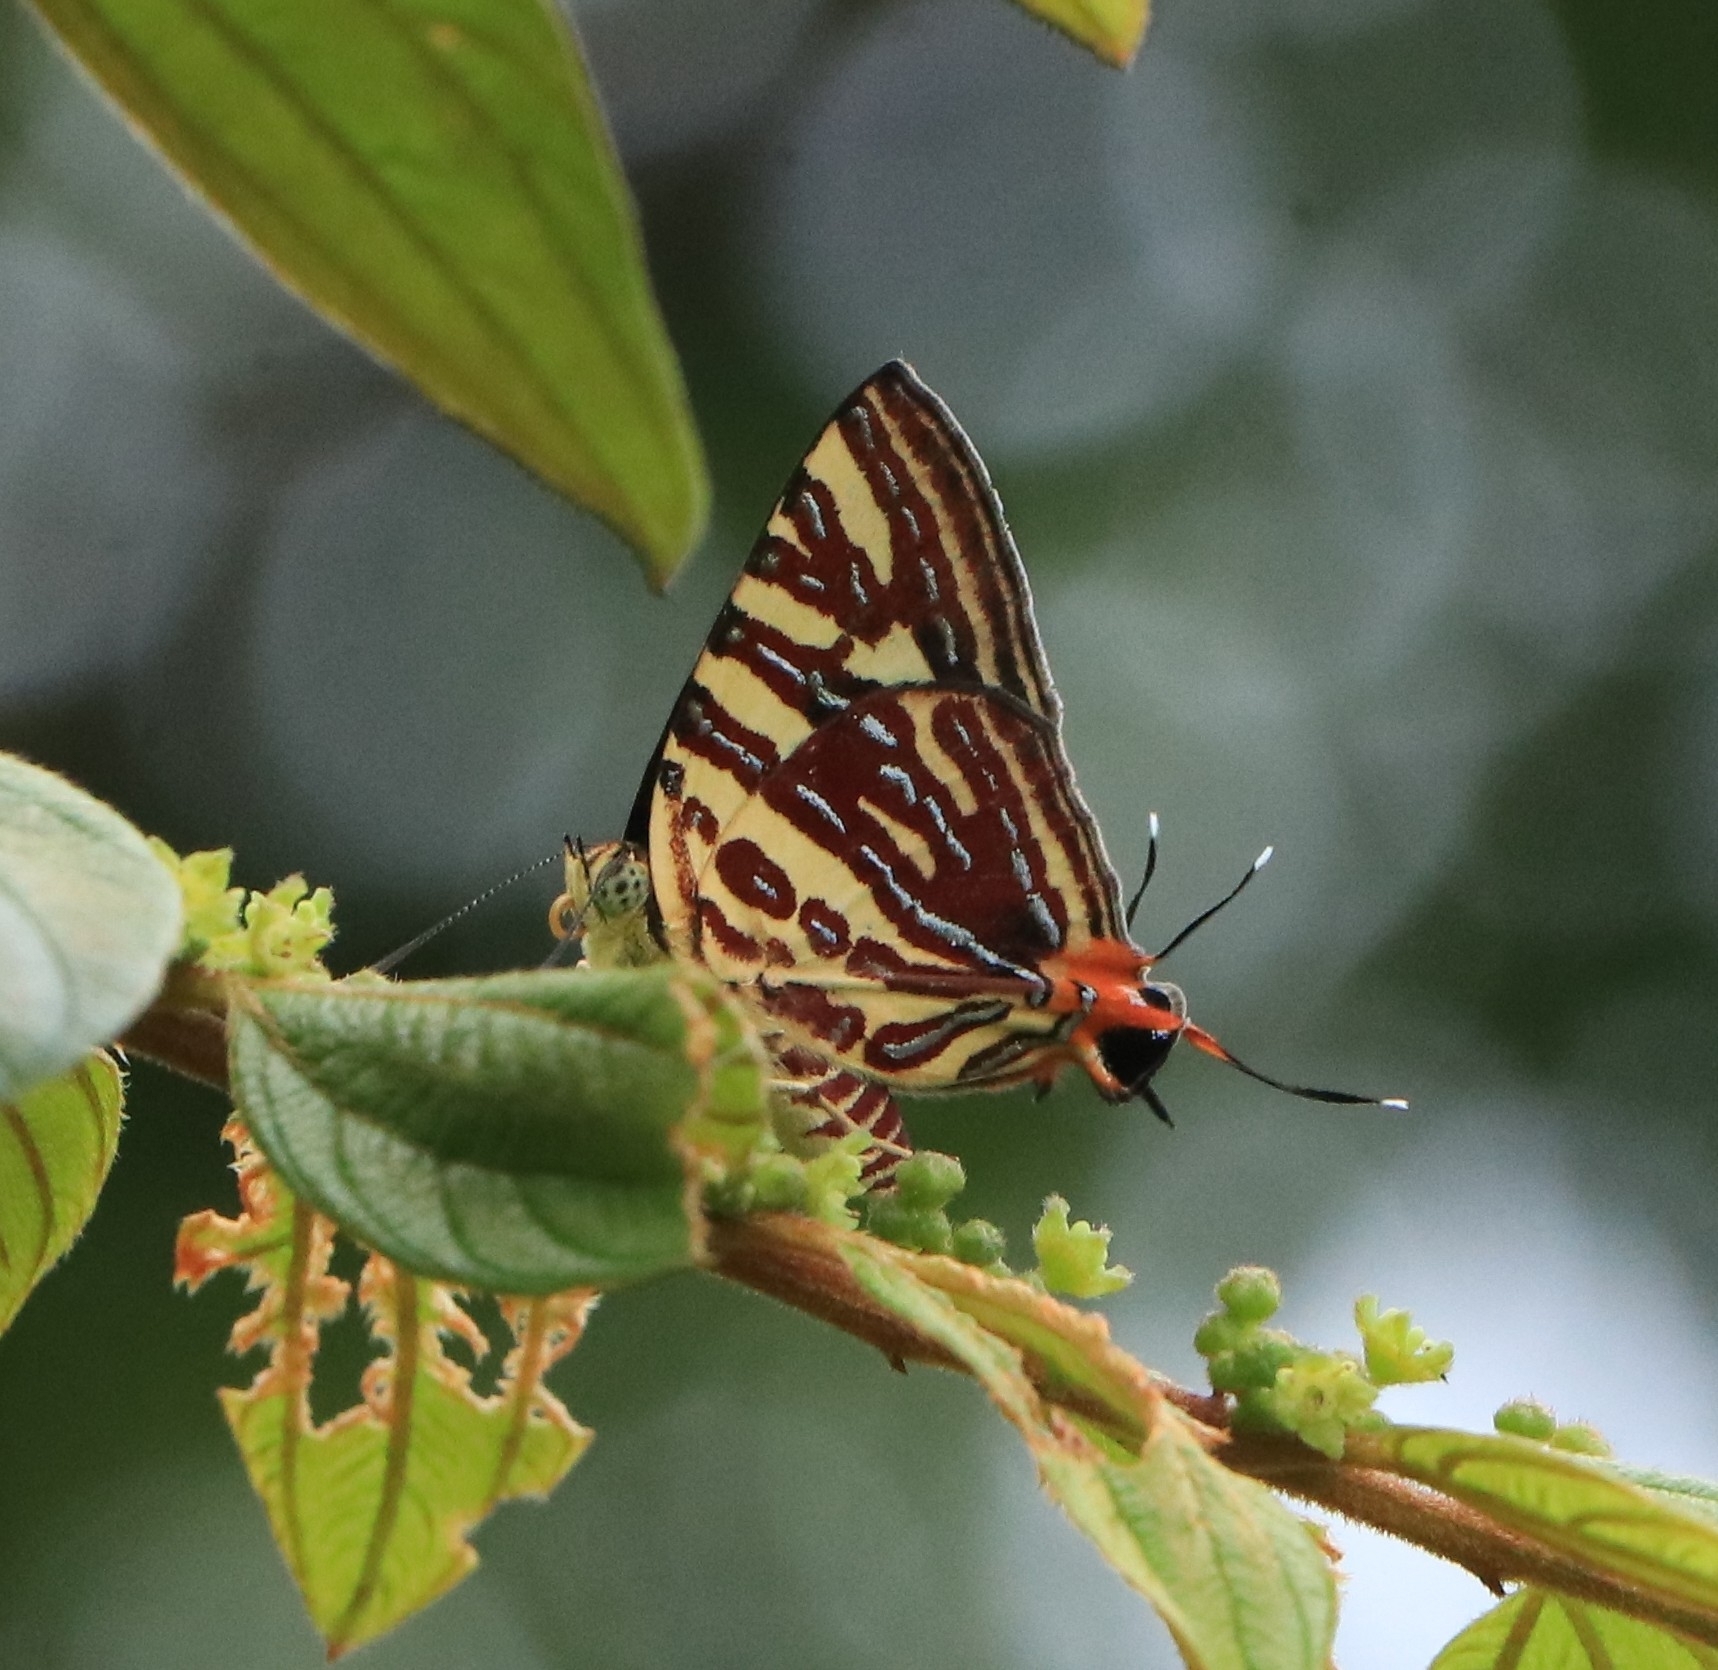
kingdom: Animalia
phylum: Arthropoda
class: Insecta
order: Lepidoptera
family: Lycaenidae
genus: Cigaritis
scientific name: Cigaritis lohita
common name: Long-banded silverline
